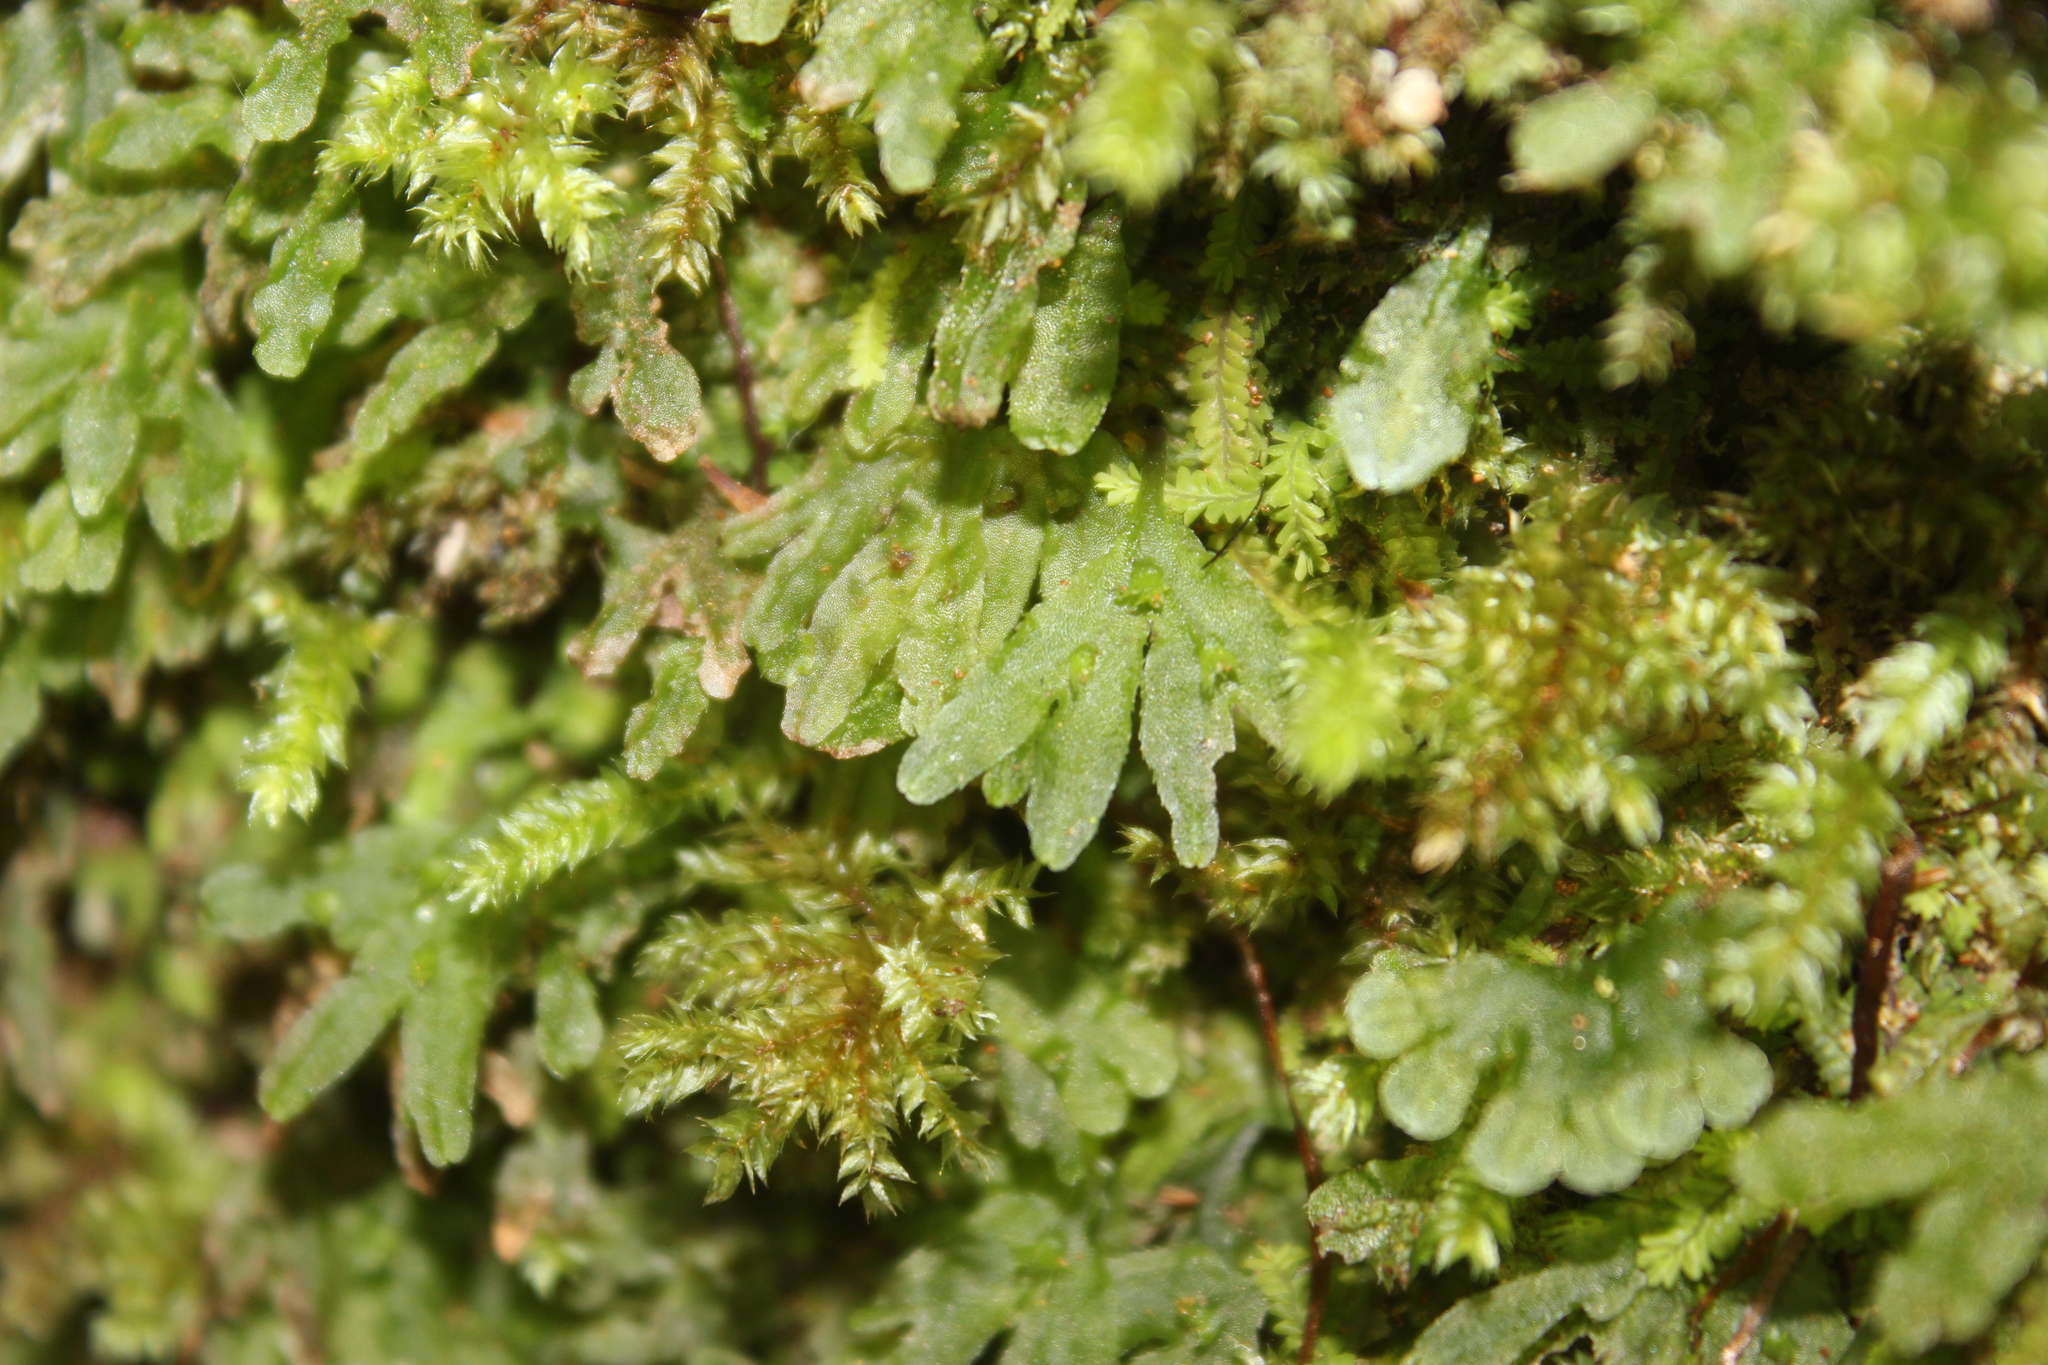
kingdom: Plantae
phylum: Marchantiophyta
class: Jungermanniopsida
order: Pallaviciniales
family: Pallaviciniaceae
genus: Symphyogyna
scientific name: Symphyogyna hymenophyllum
